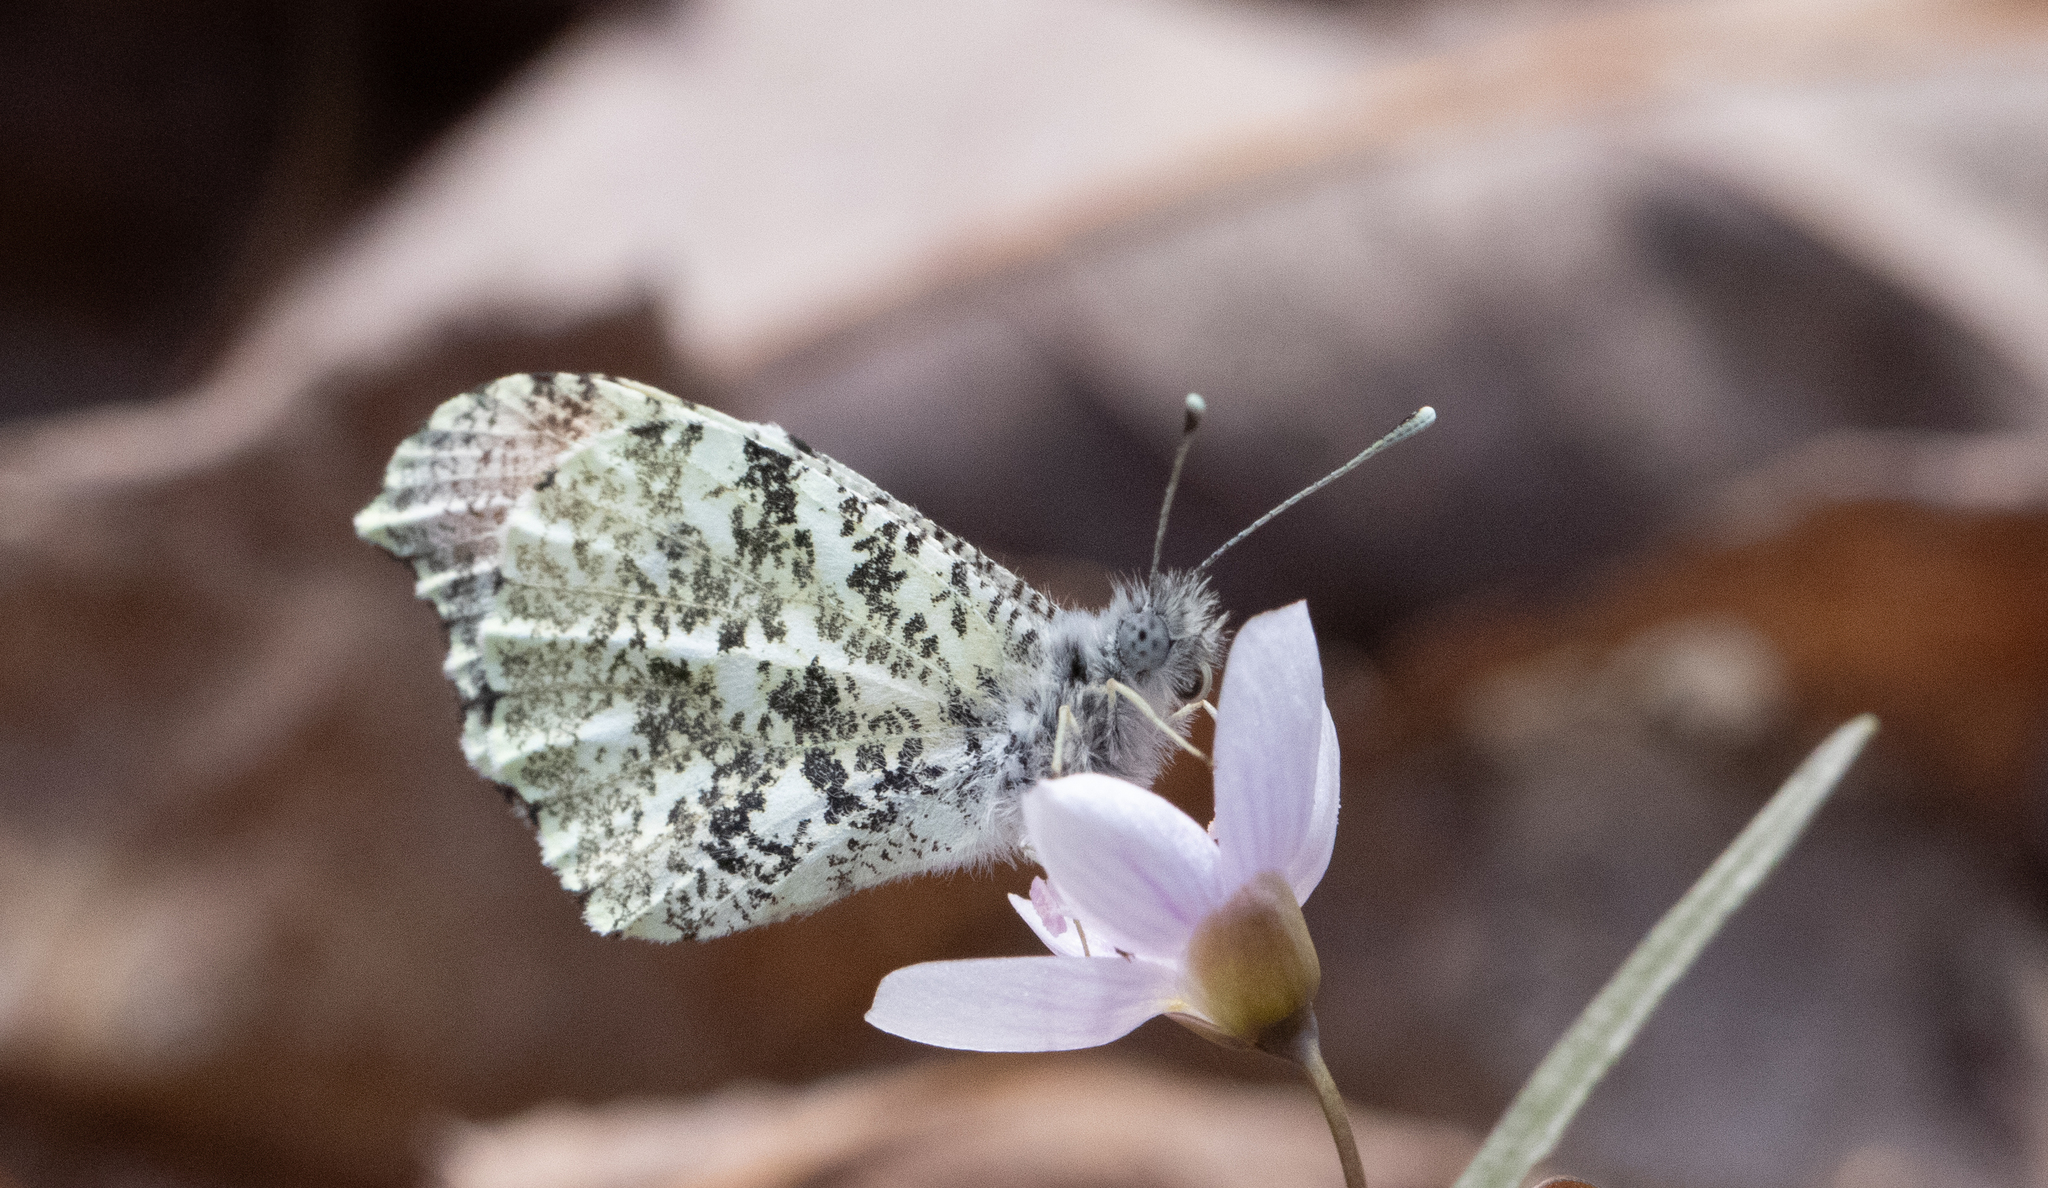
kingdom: Animalia
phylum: Arthropoda
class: Insecta
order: Lepidoptera
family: Pieridae
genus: Anthocharis
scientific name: Anthocharis midea
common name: Falcate orangetip
